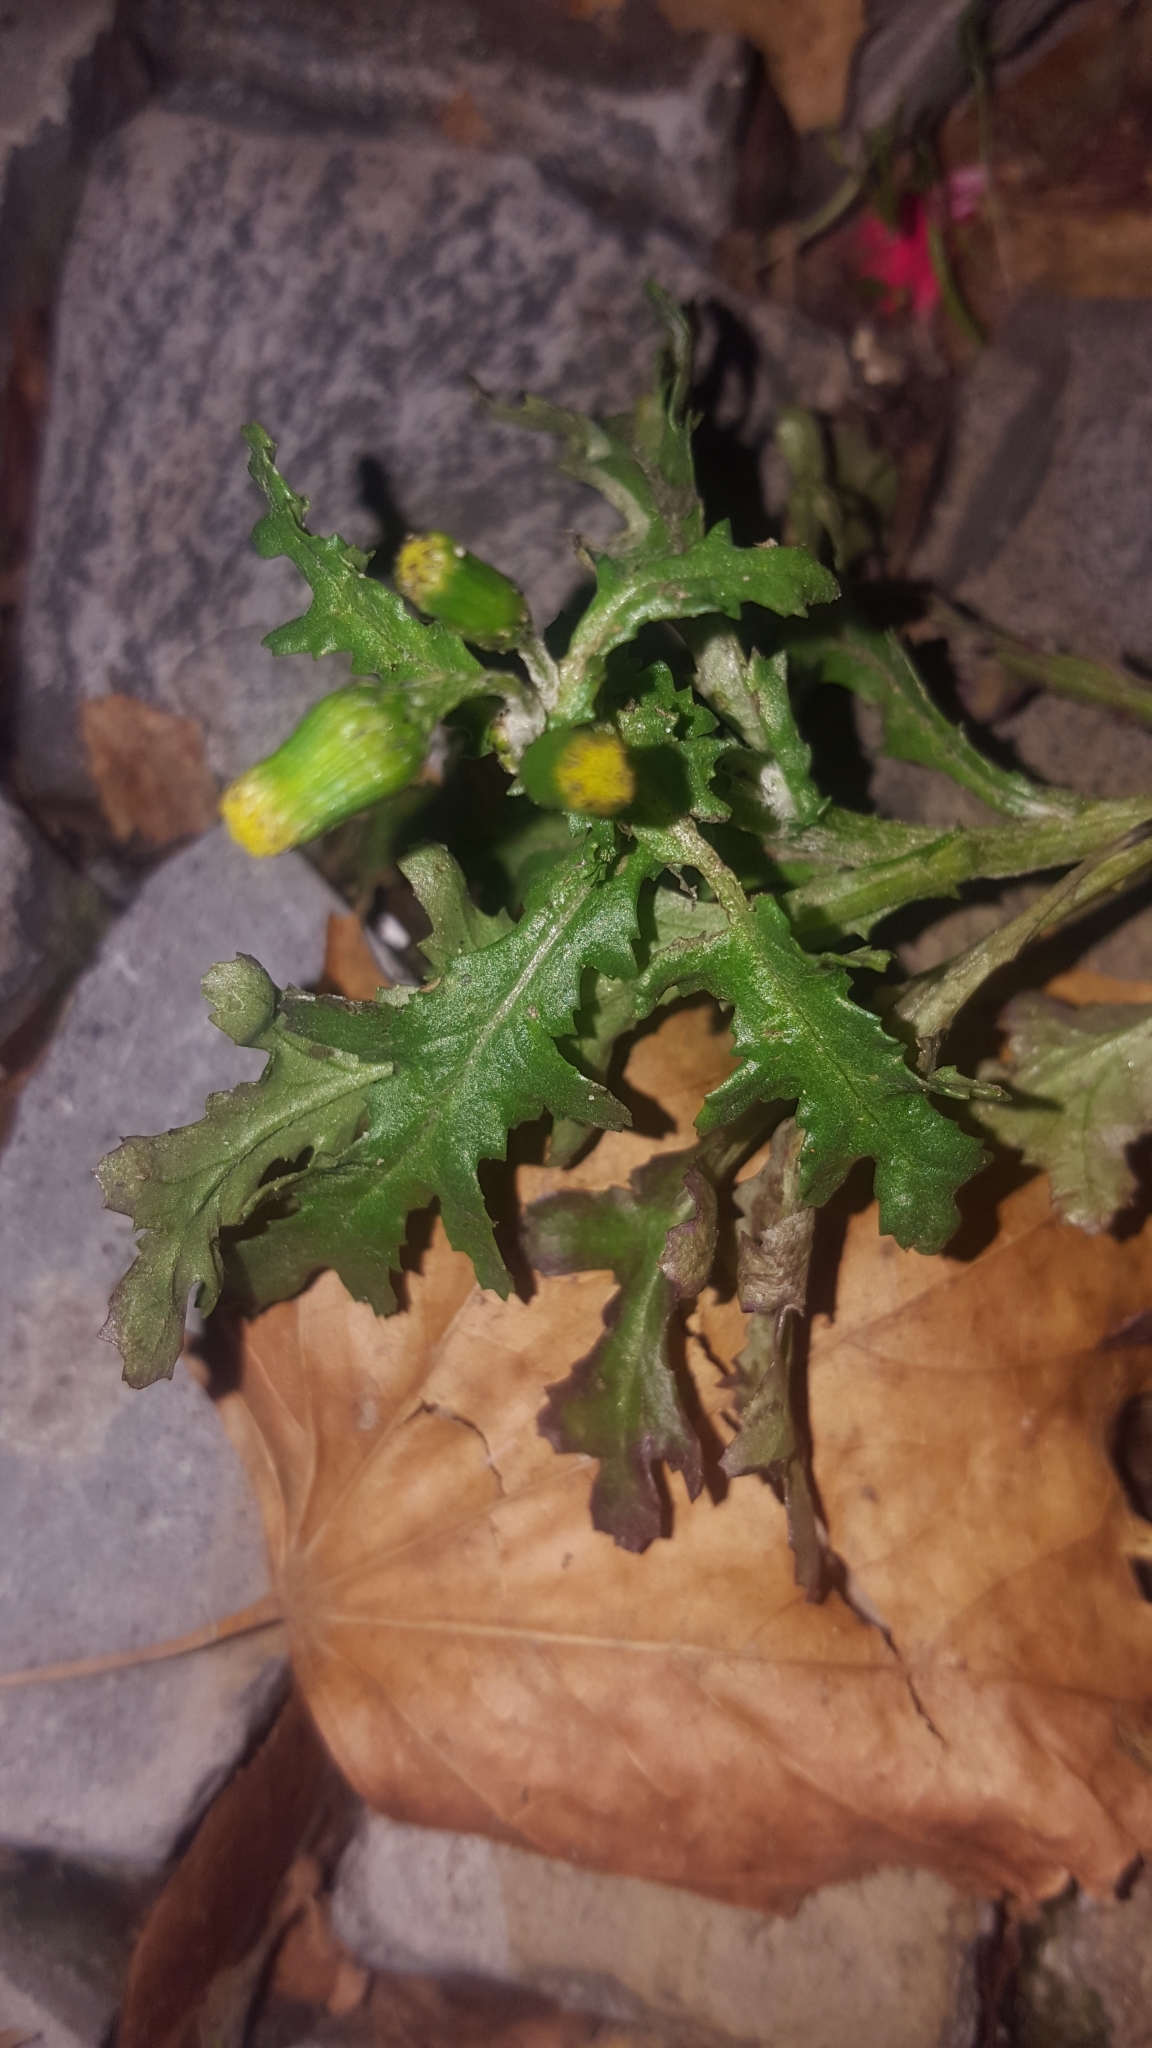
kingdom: Plantae
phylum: Tracheophyta
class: Magnoliopsida
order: Asterales
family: Asteraceae
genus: Senecio
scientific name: Senecio vulgaris
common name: Old-man-in-the-spring
